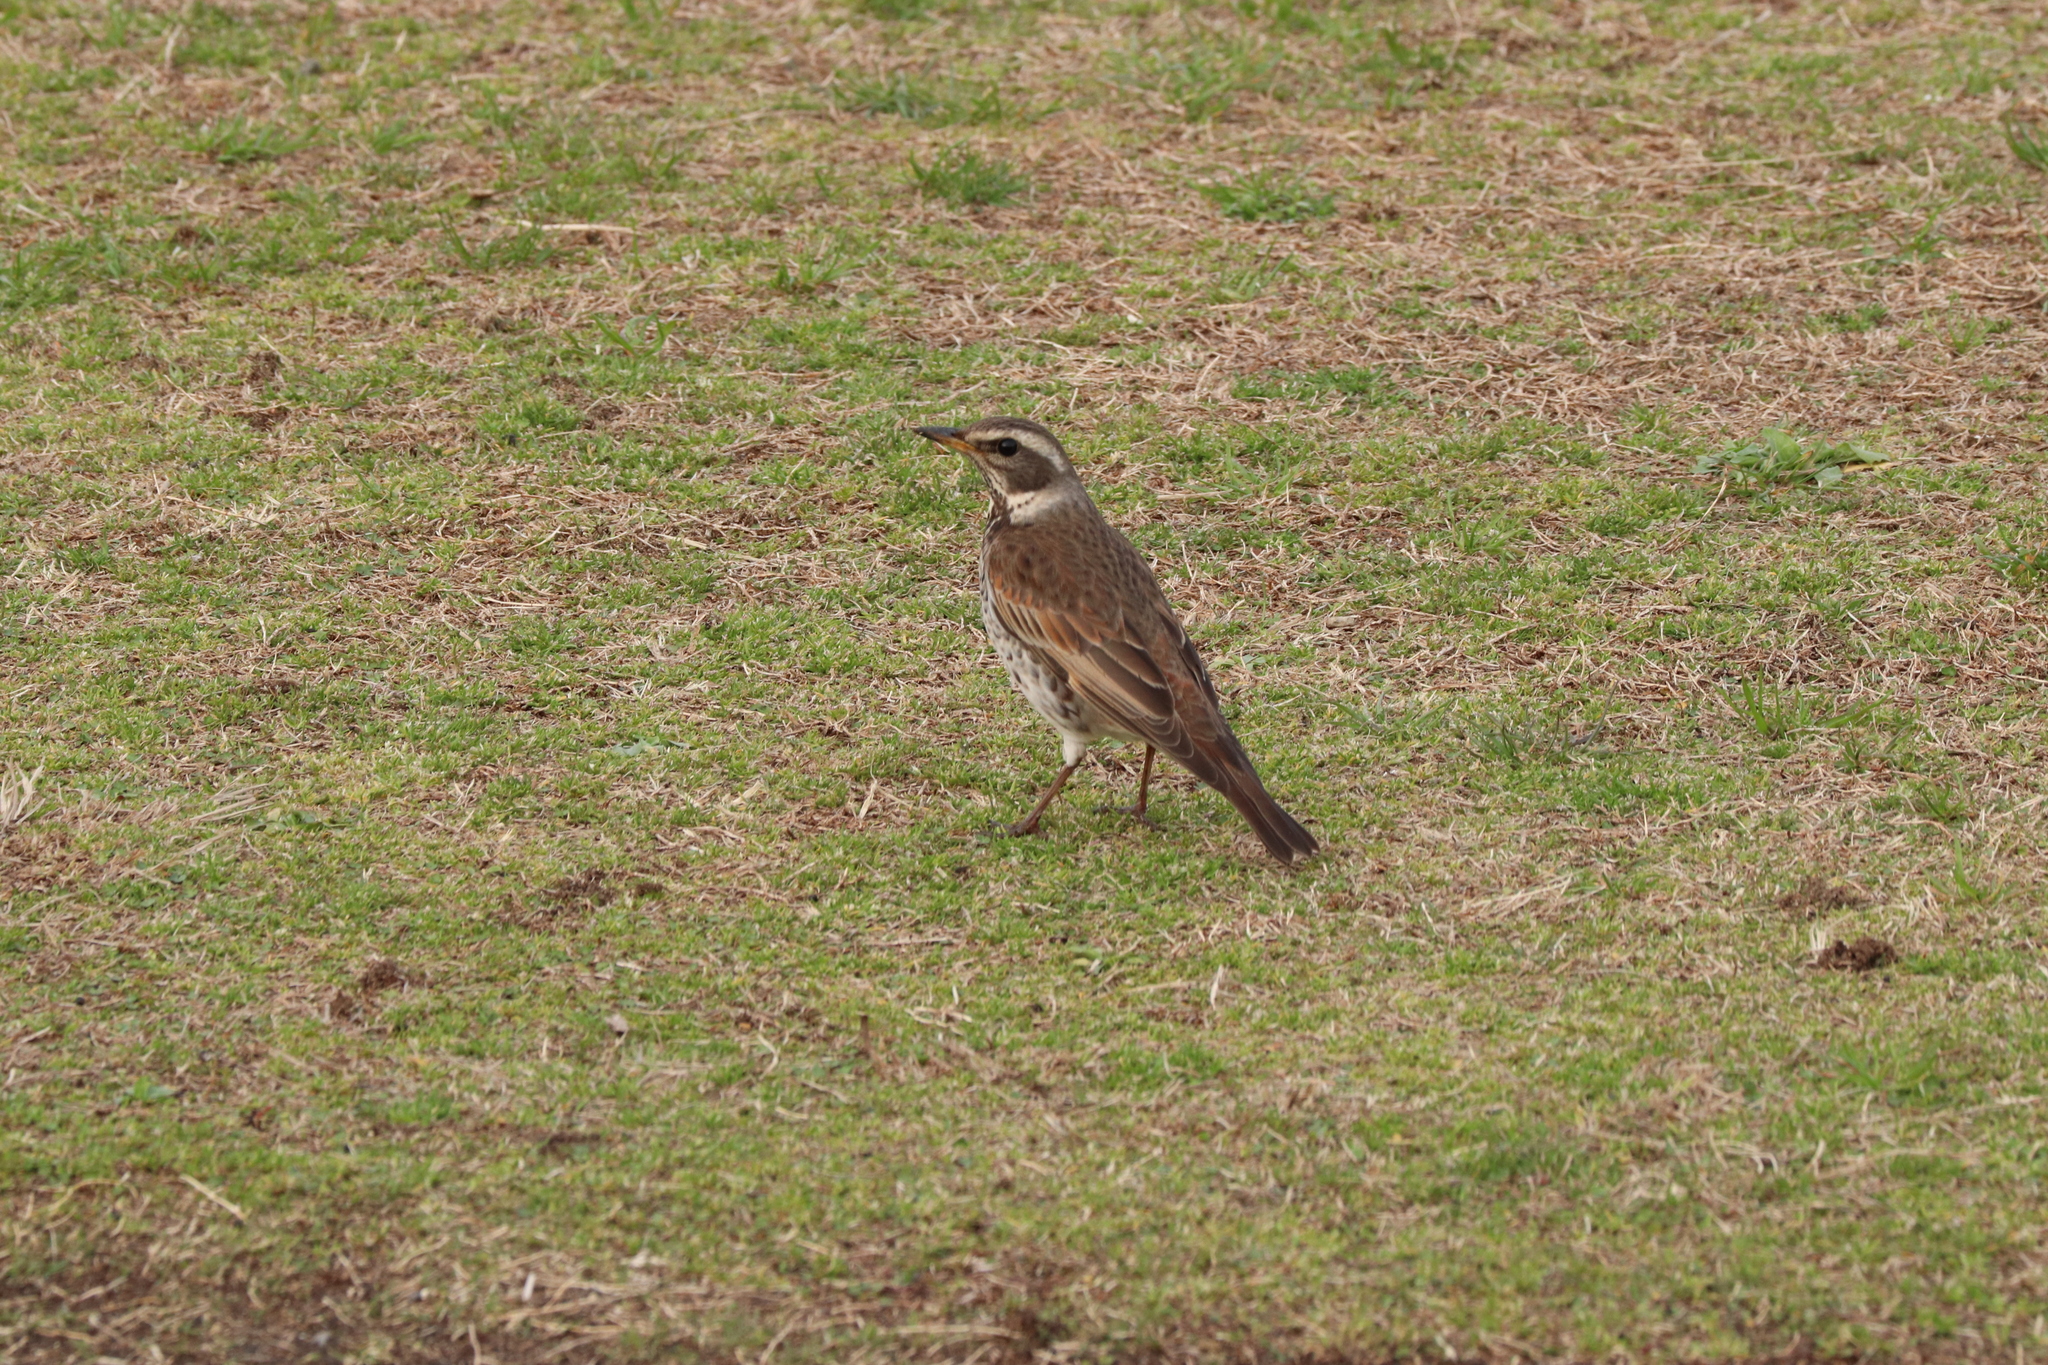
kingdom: Animalia
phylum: Chordata
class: Aves
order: Passeriformes
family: Turdidae
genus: Turdus
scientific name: Turdus eunomus
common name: Dusky thrush
